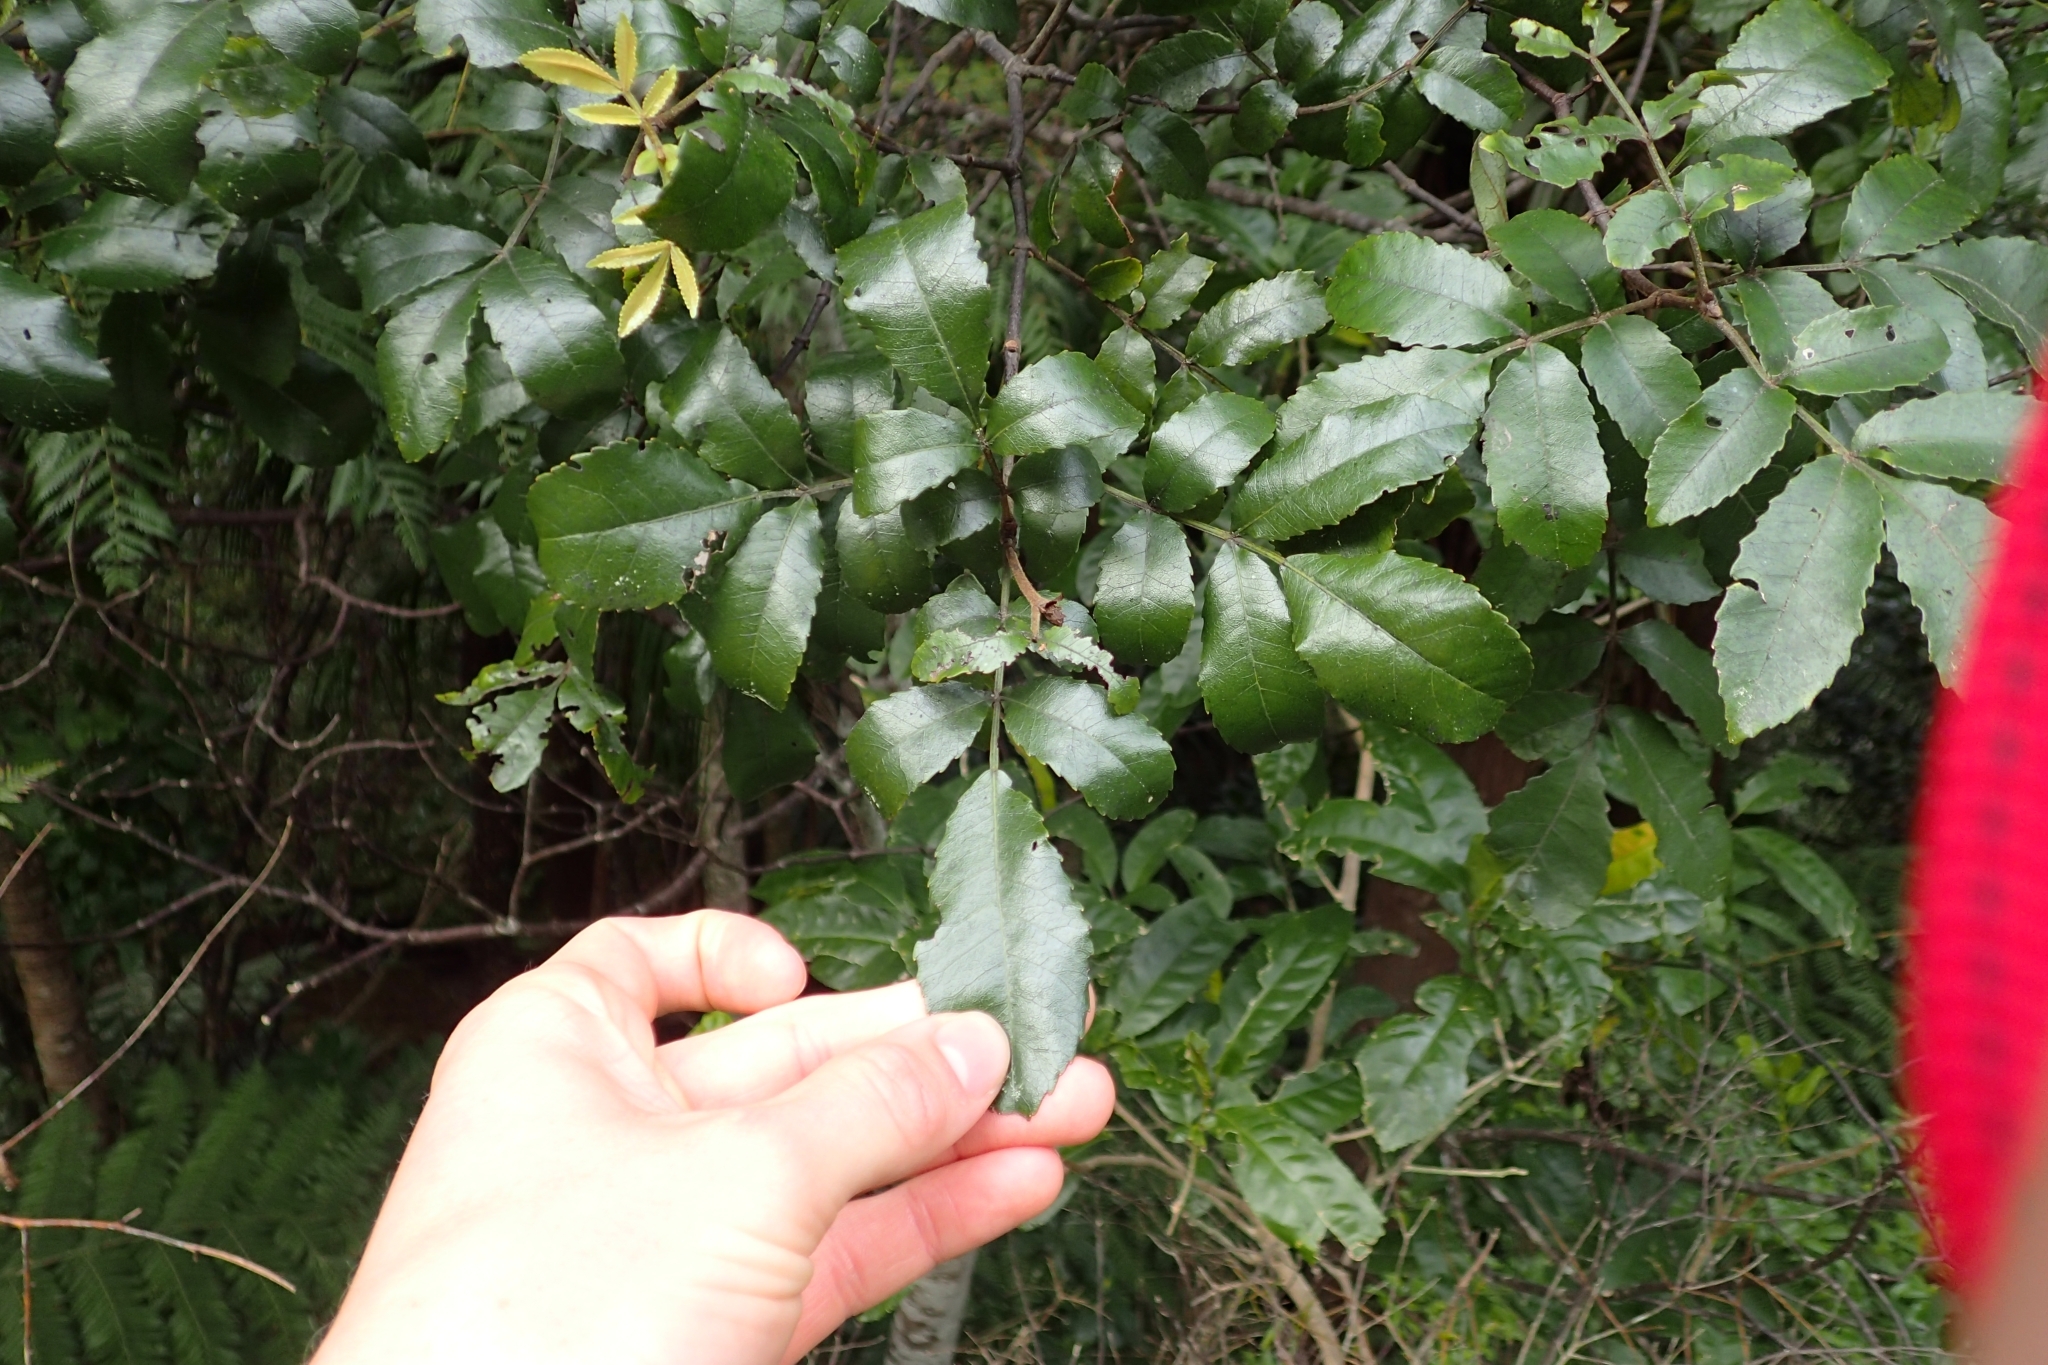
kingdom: Plantae
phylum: Tracheophyta
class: Magnoliopsida
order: Oxalidales
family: Cunoniaceae
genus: Pterophylla
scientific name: Pterophylla sylvicola
